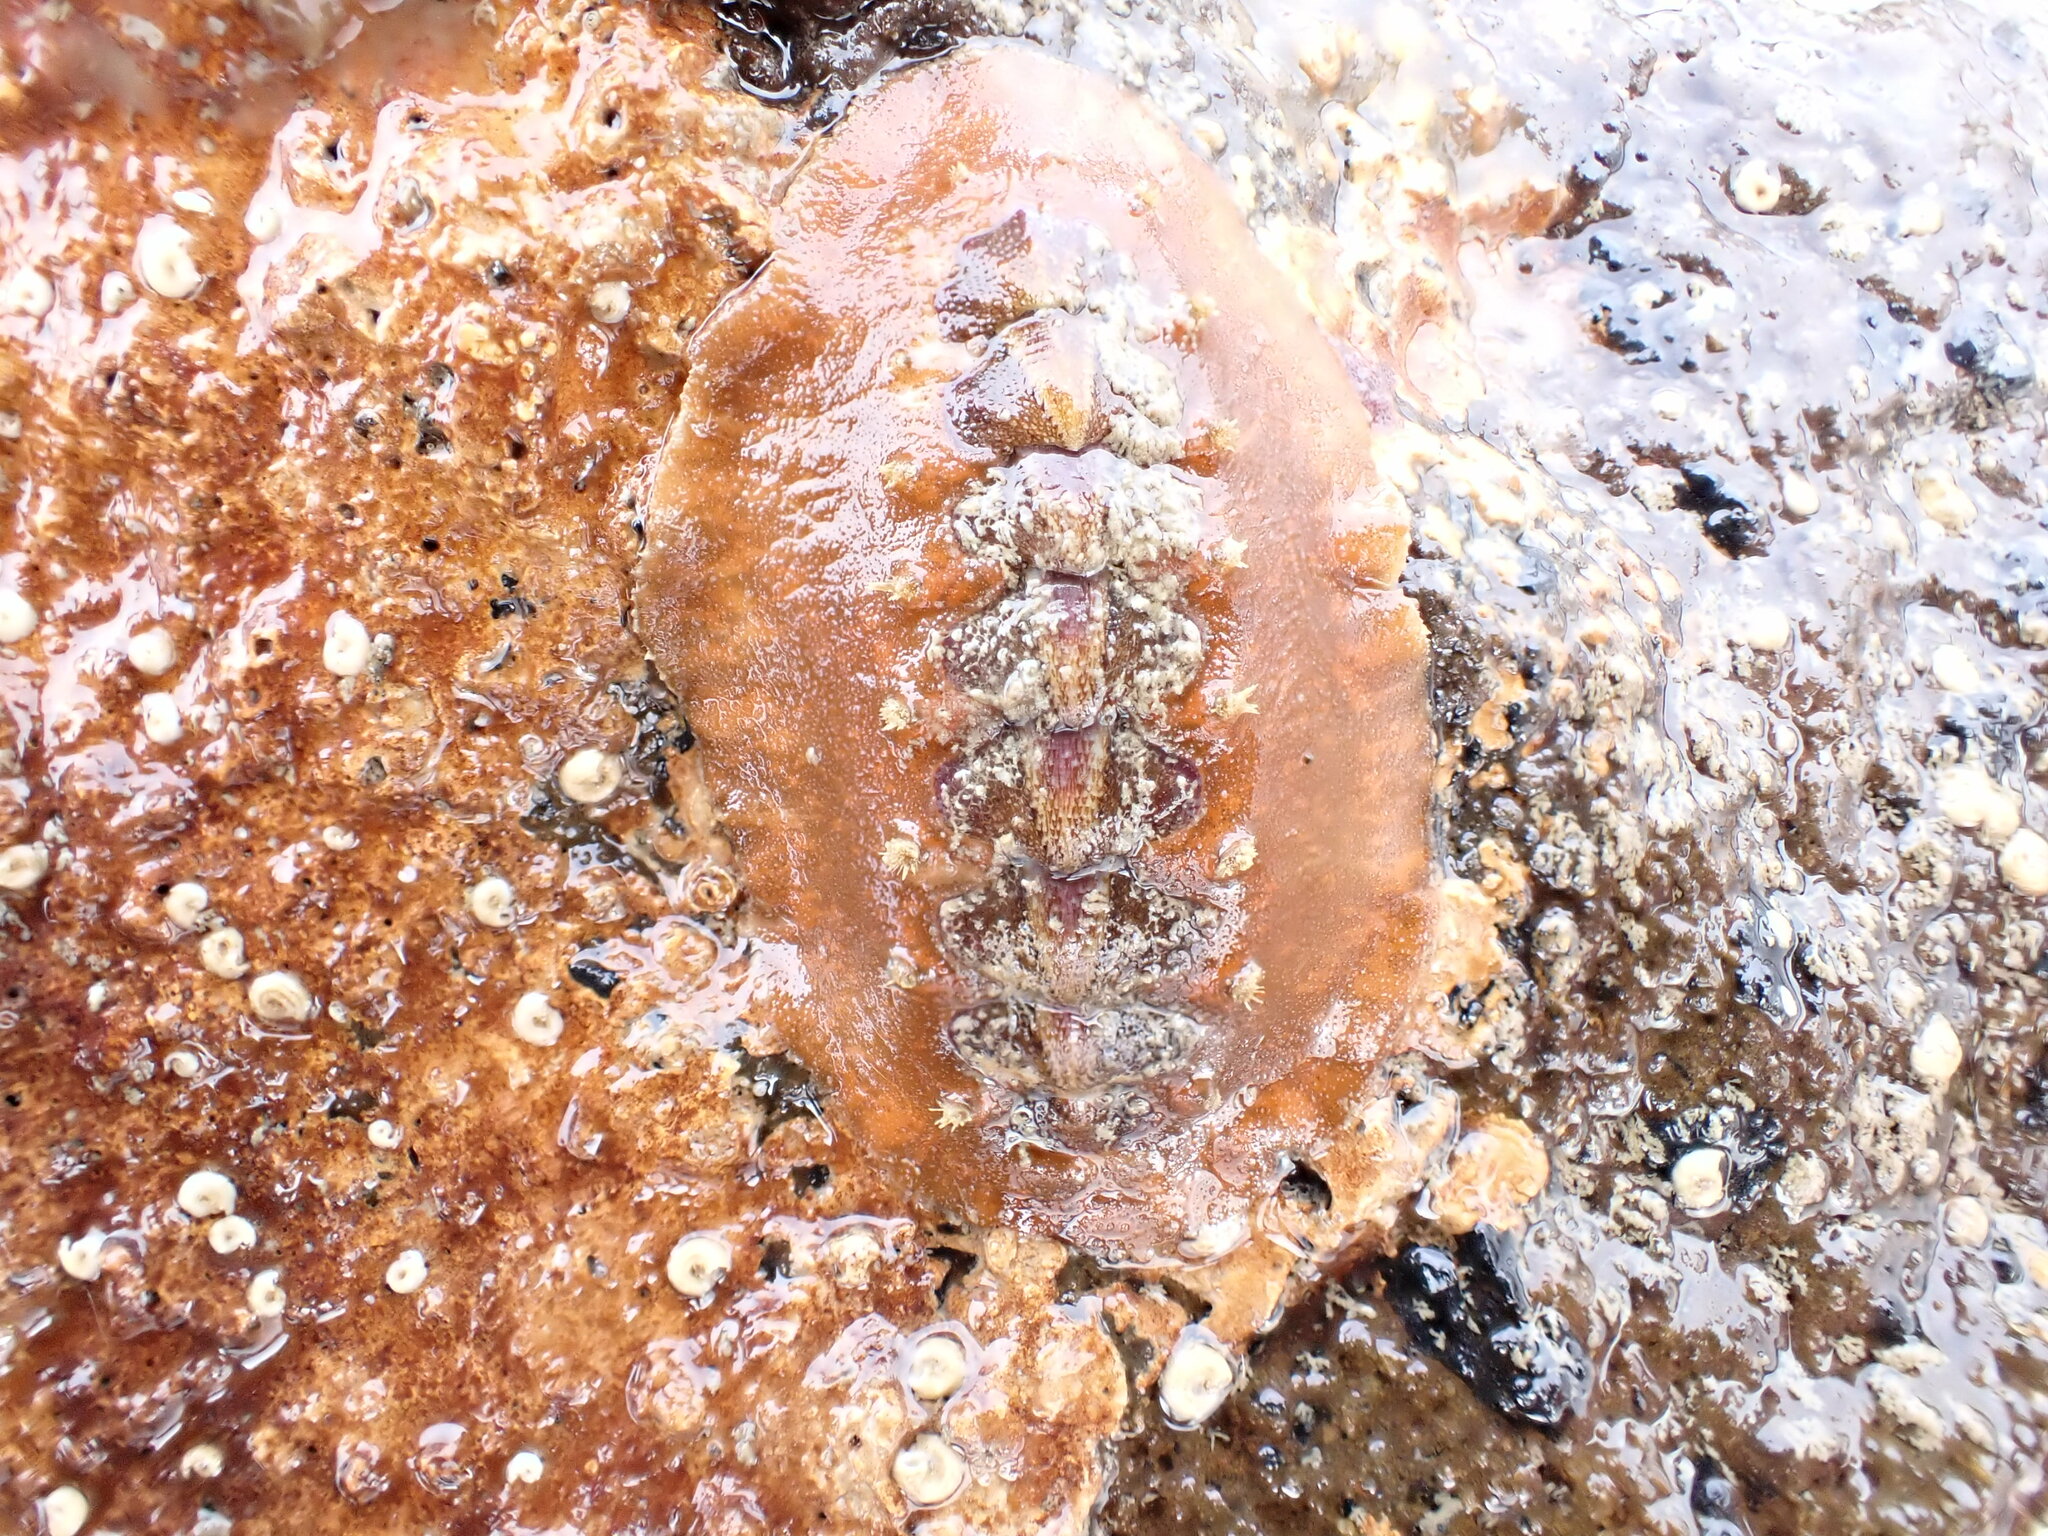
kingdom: Animalia
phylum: Mollusca
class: Polyplacophora
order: Chitonida
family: Acanthochitonidae
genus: Notoplax
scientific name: Notoplax violacea
